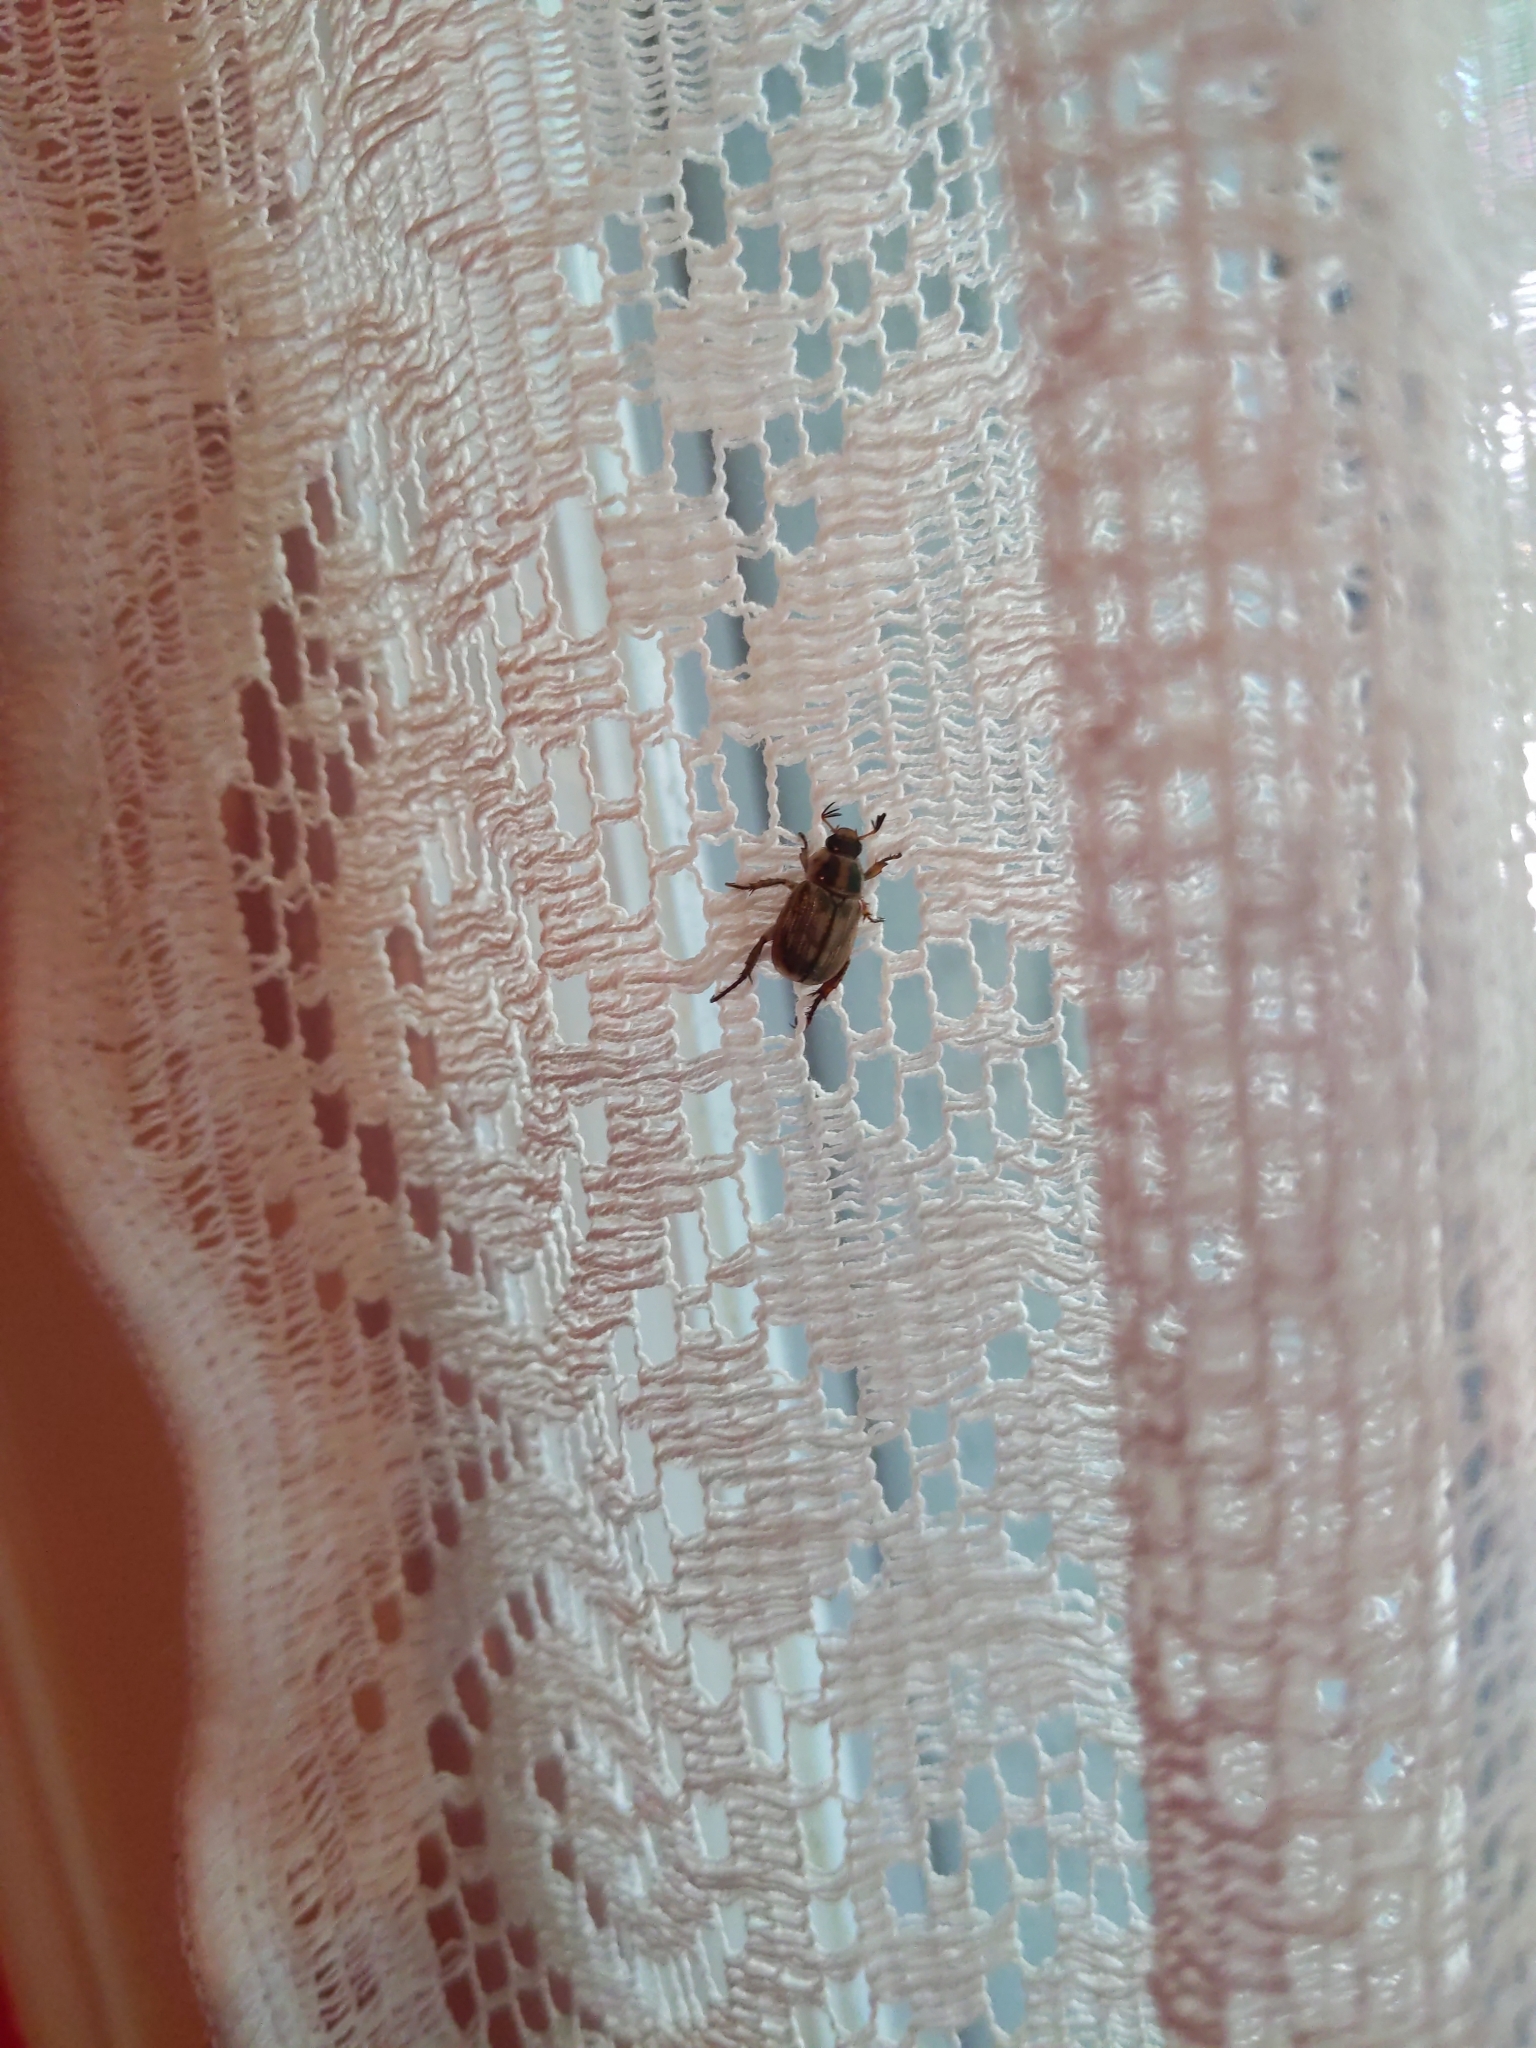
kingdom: Animalia
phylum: Arthropoda
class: Insecta
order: Coleoptera
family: Scarabaeidae
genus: Exomala
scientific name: Exomala orientalis
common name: Oriental beetle
